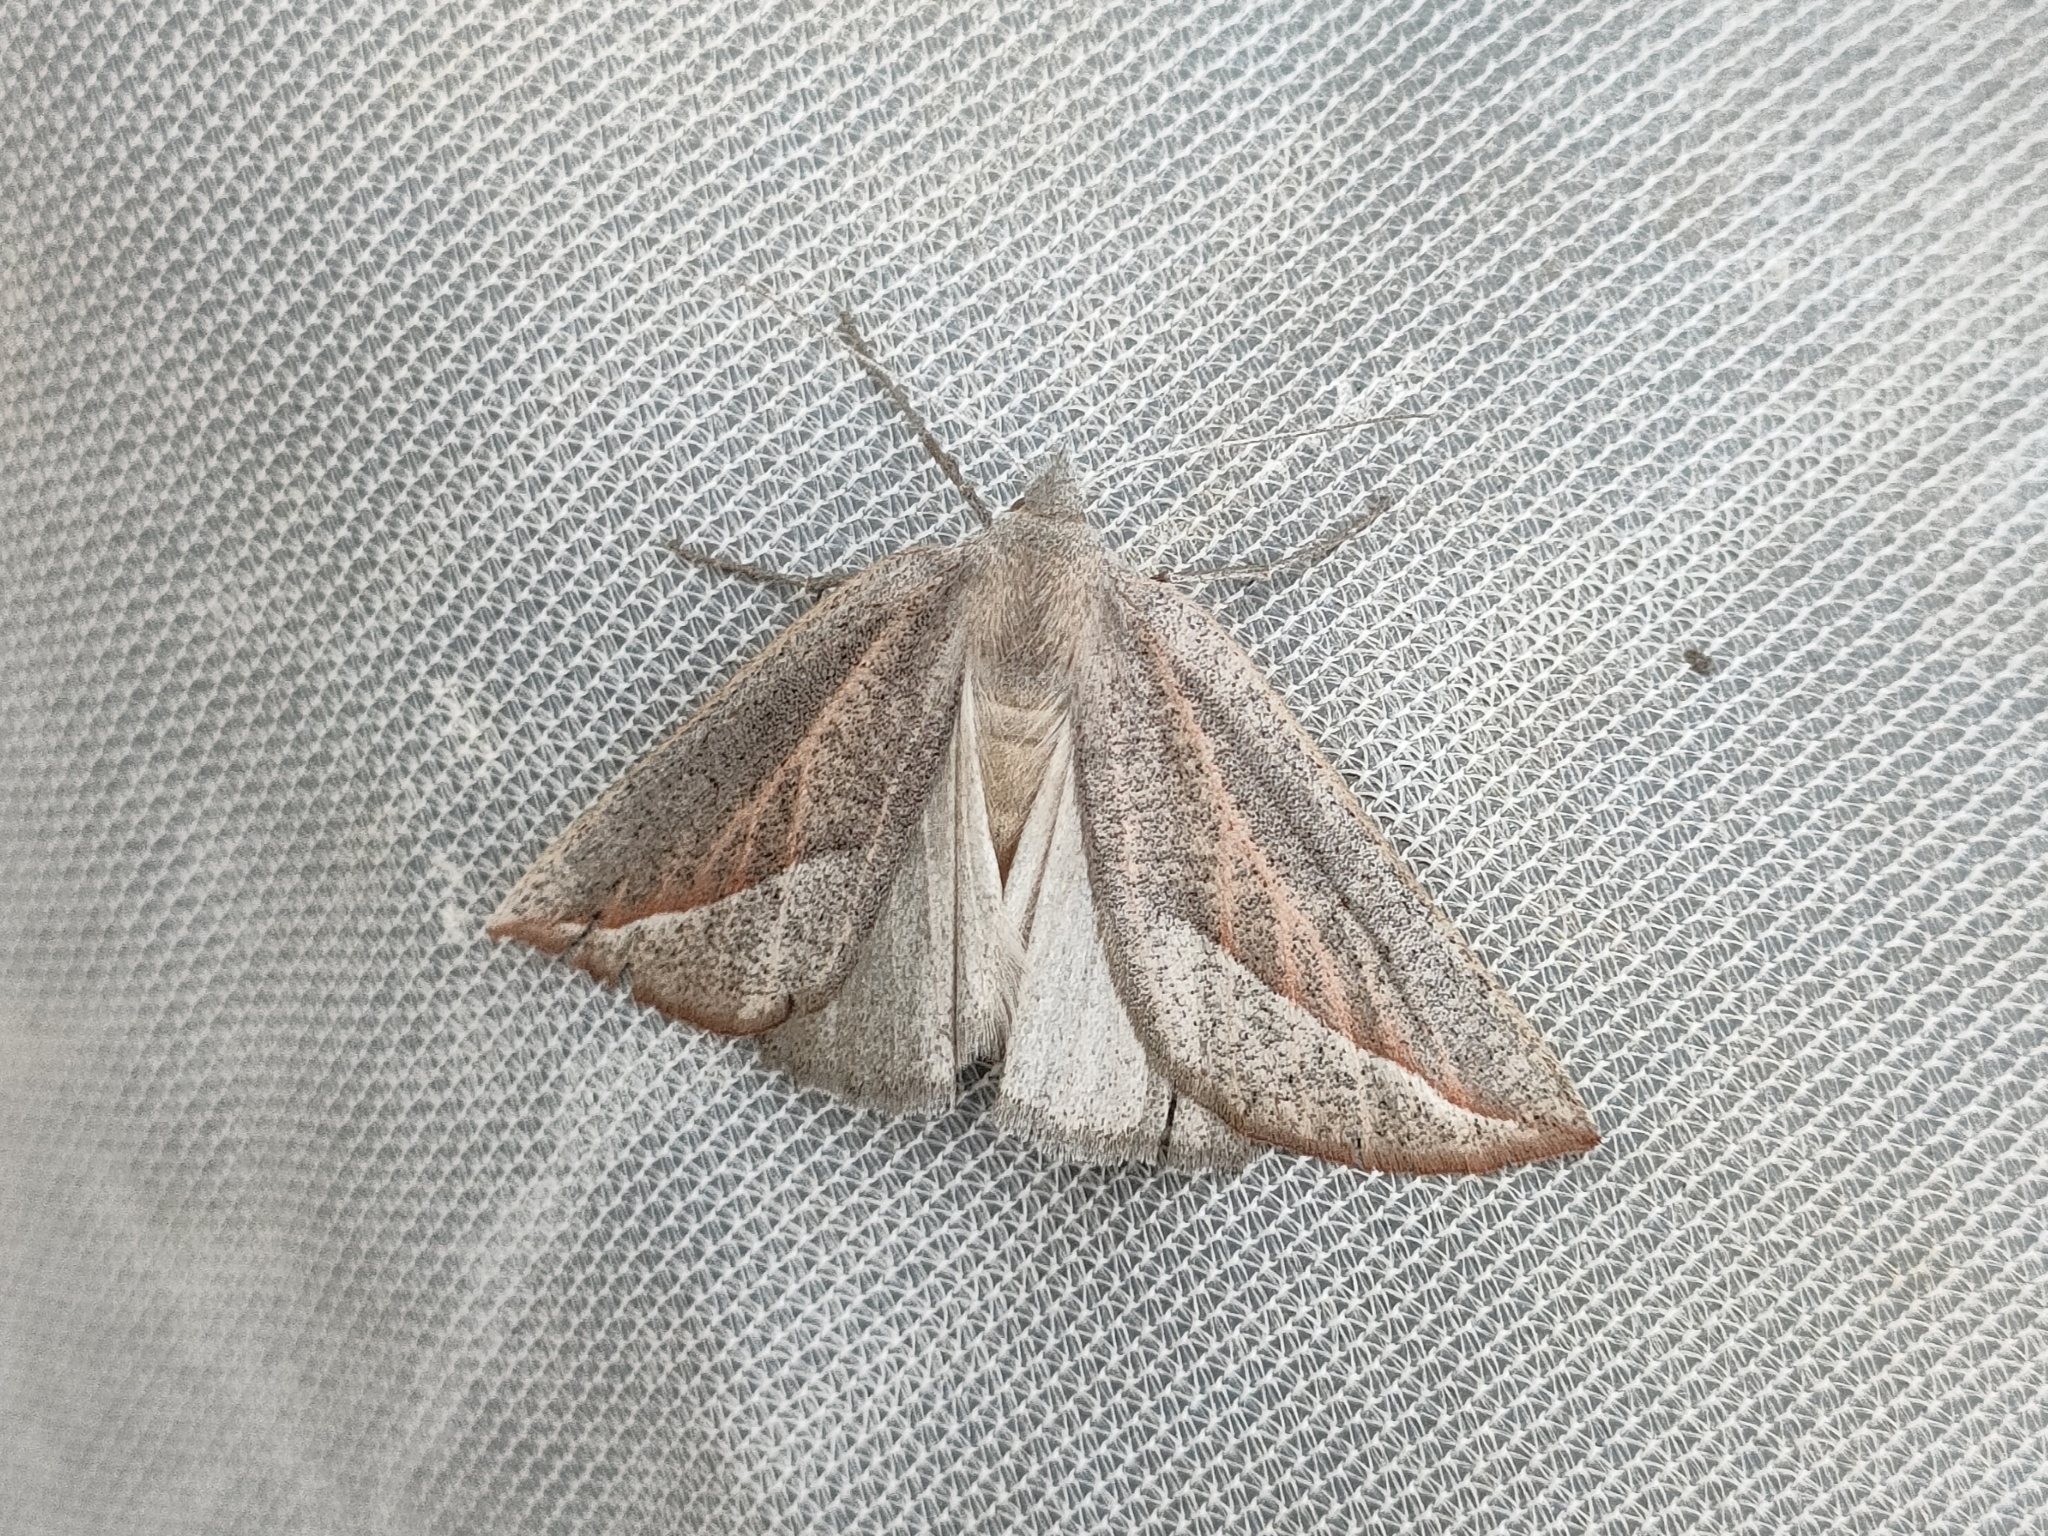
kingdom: Animalia
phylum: Arthropoda
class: Insecta
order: Lepidoptera
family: Geometridae
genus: Compsoptera
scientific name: Compsoptera opacaria
